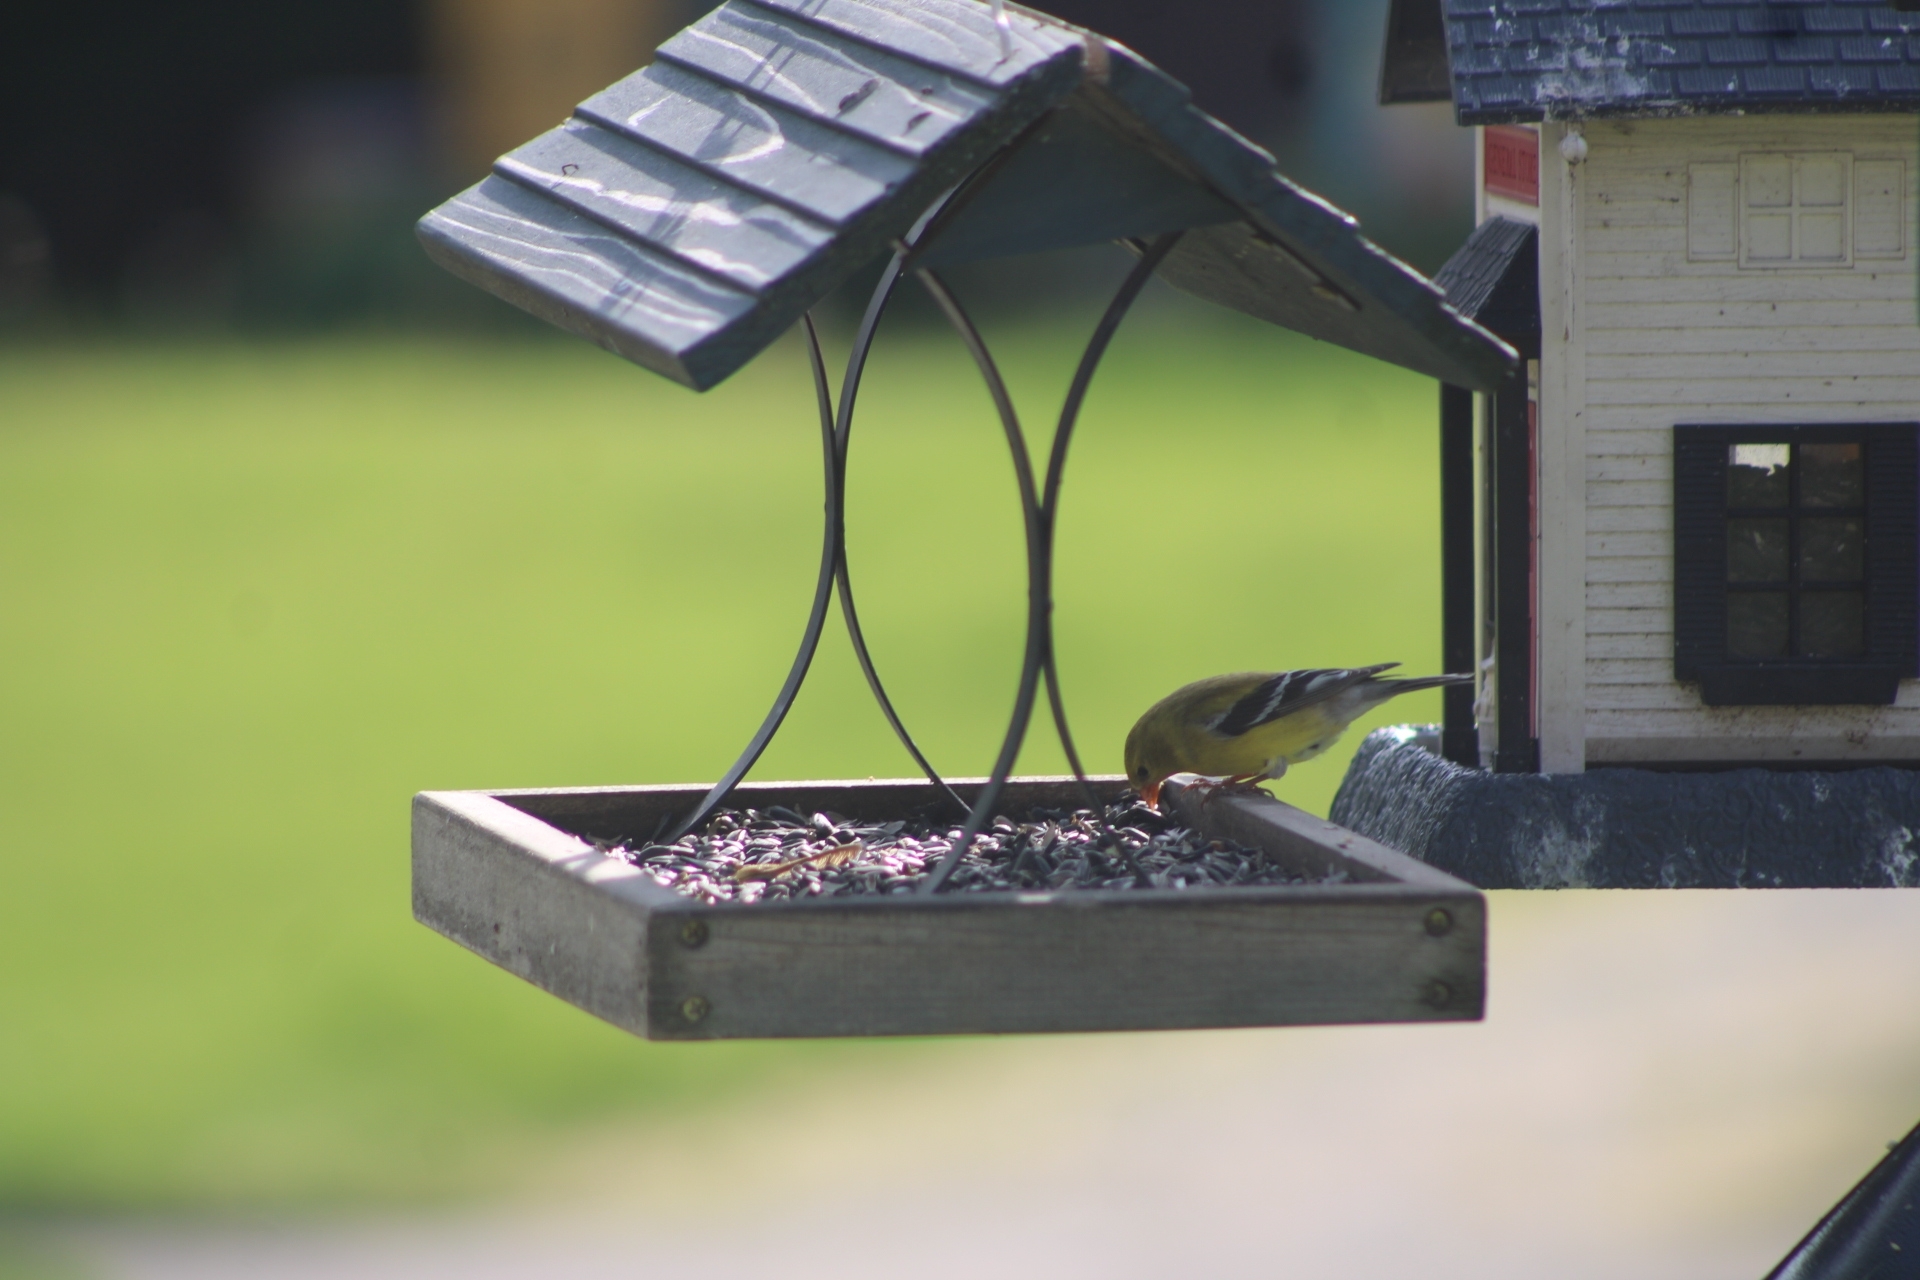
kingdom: Animalia
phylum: Chordata
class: Aves
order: Passeriformes
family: Fringillidae
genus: Spinus
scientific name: Spinus tristis
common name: American goldfinch
